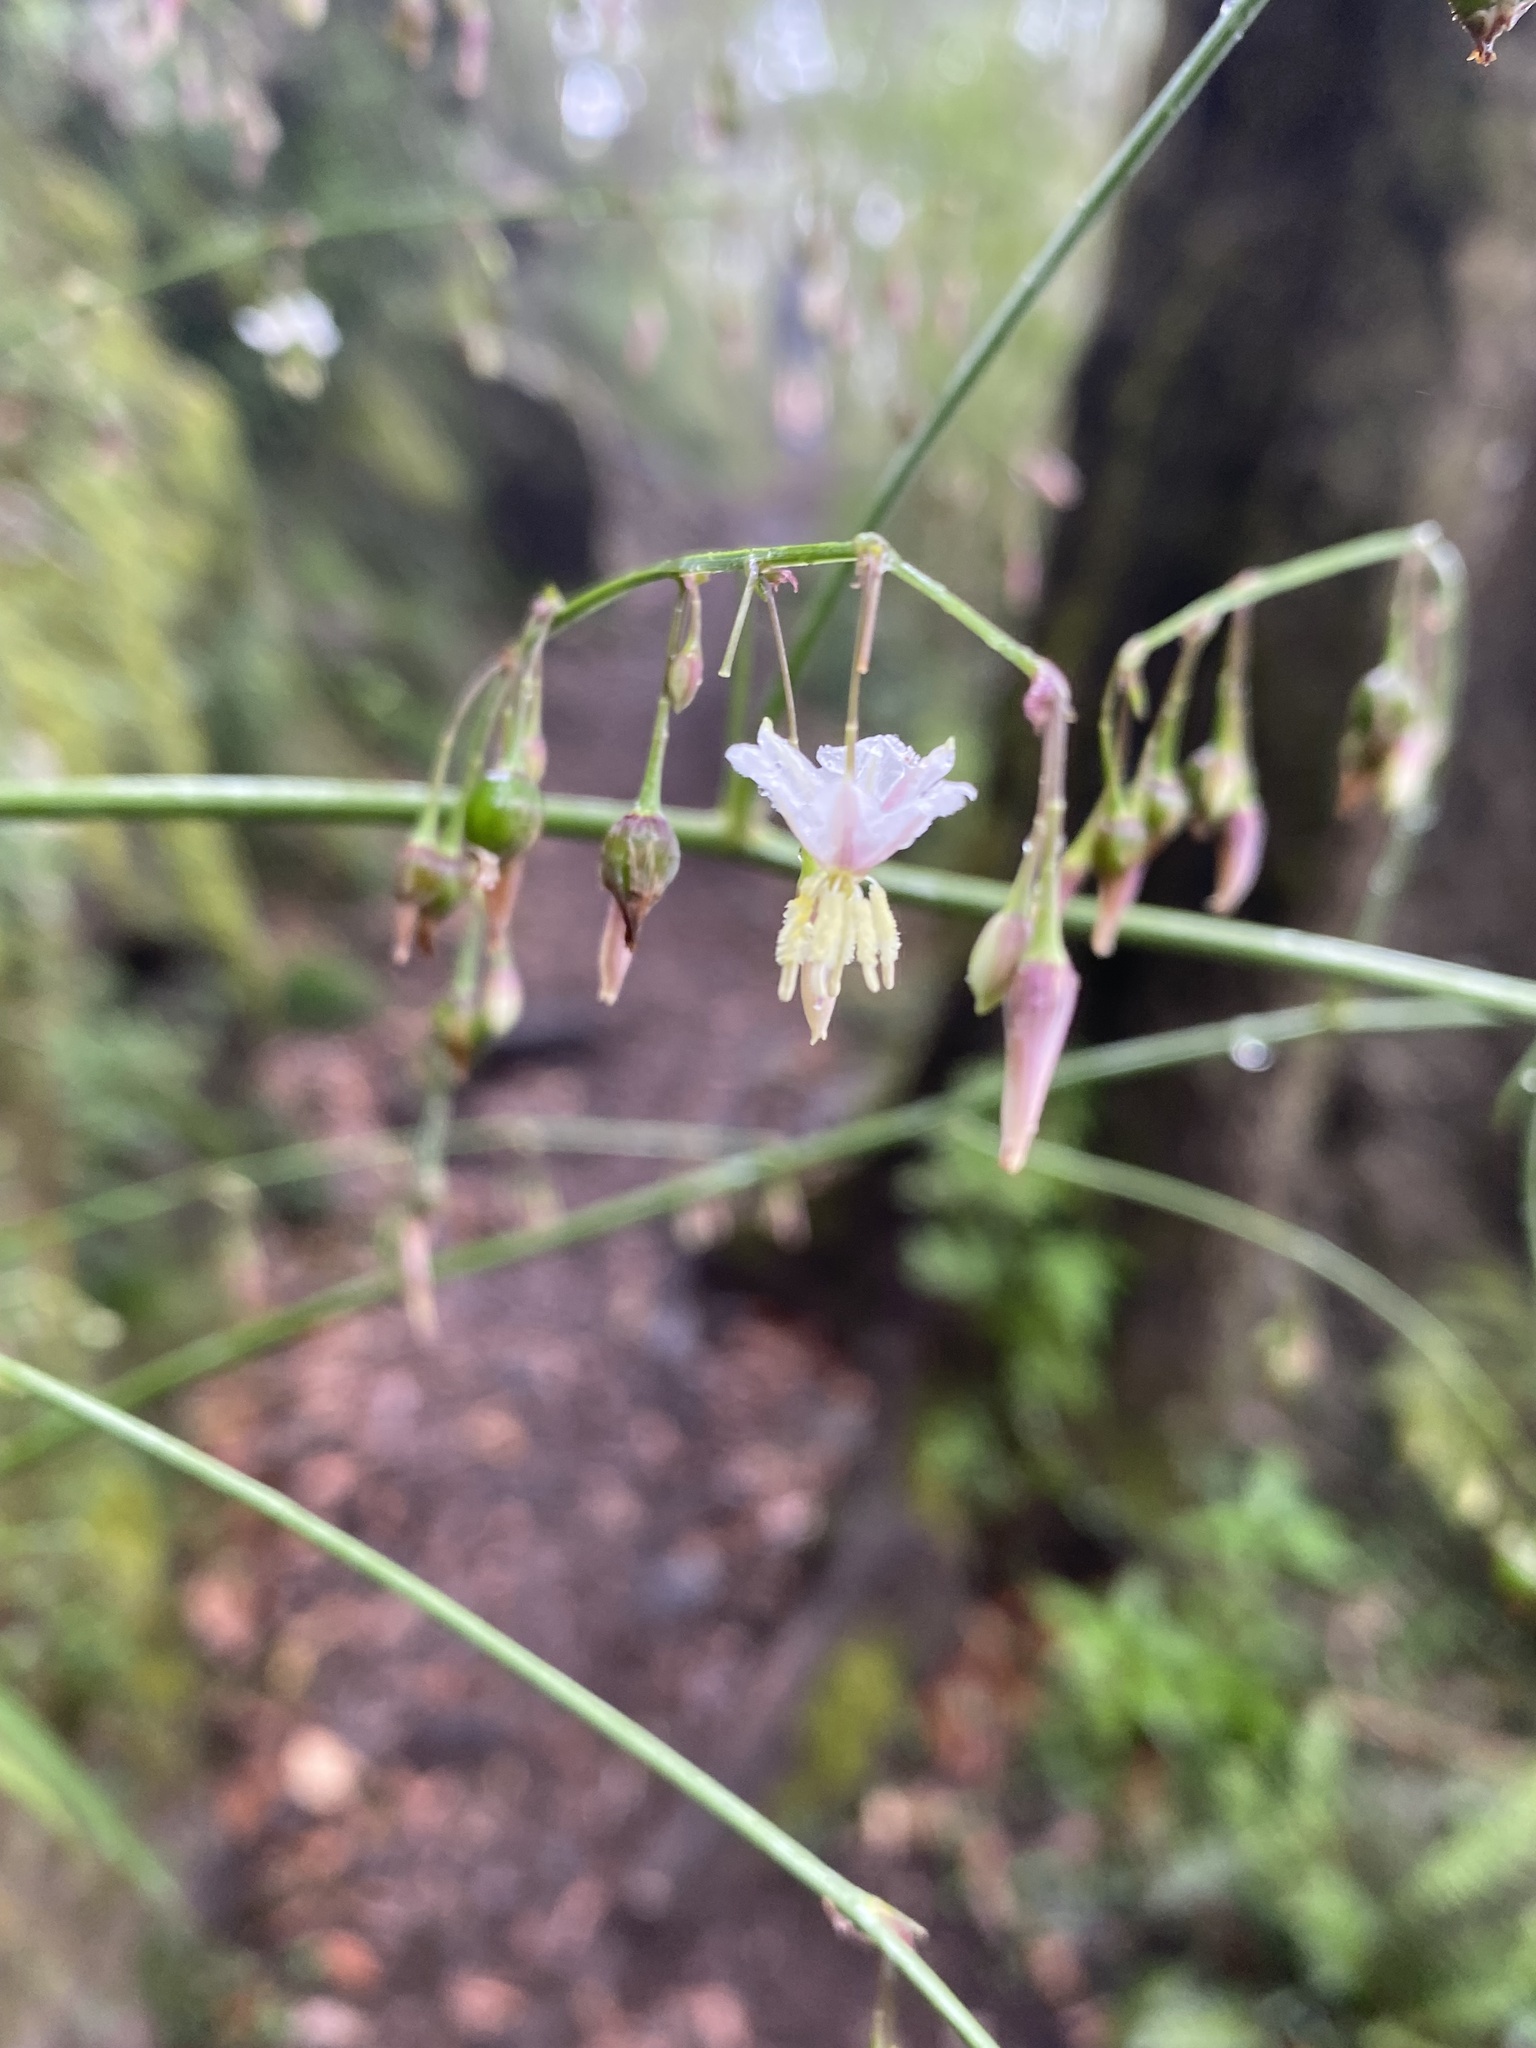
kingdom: Plantae
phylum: Tracheophyta
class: Liliopsida
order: Asparagales
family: Asparagaceae
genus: Arthropodium
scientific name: Arthropodium milleflorum
